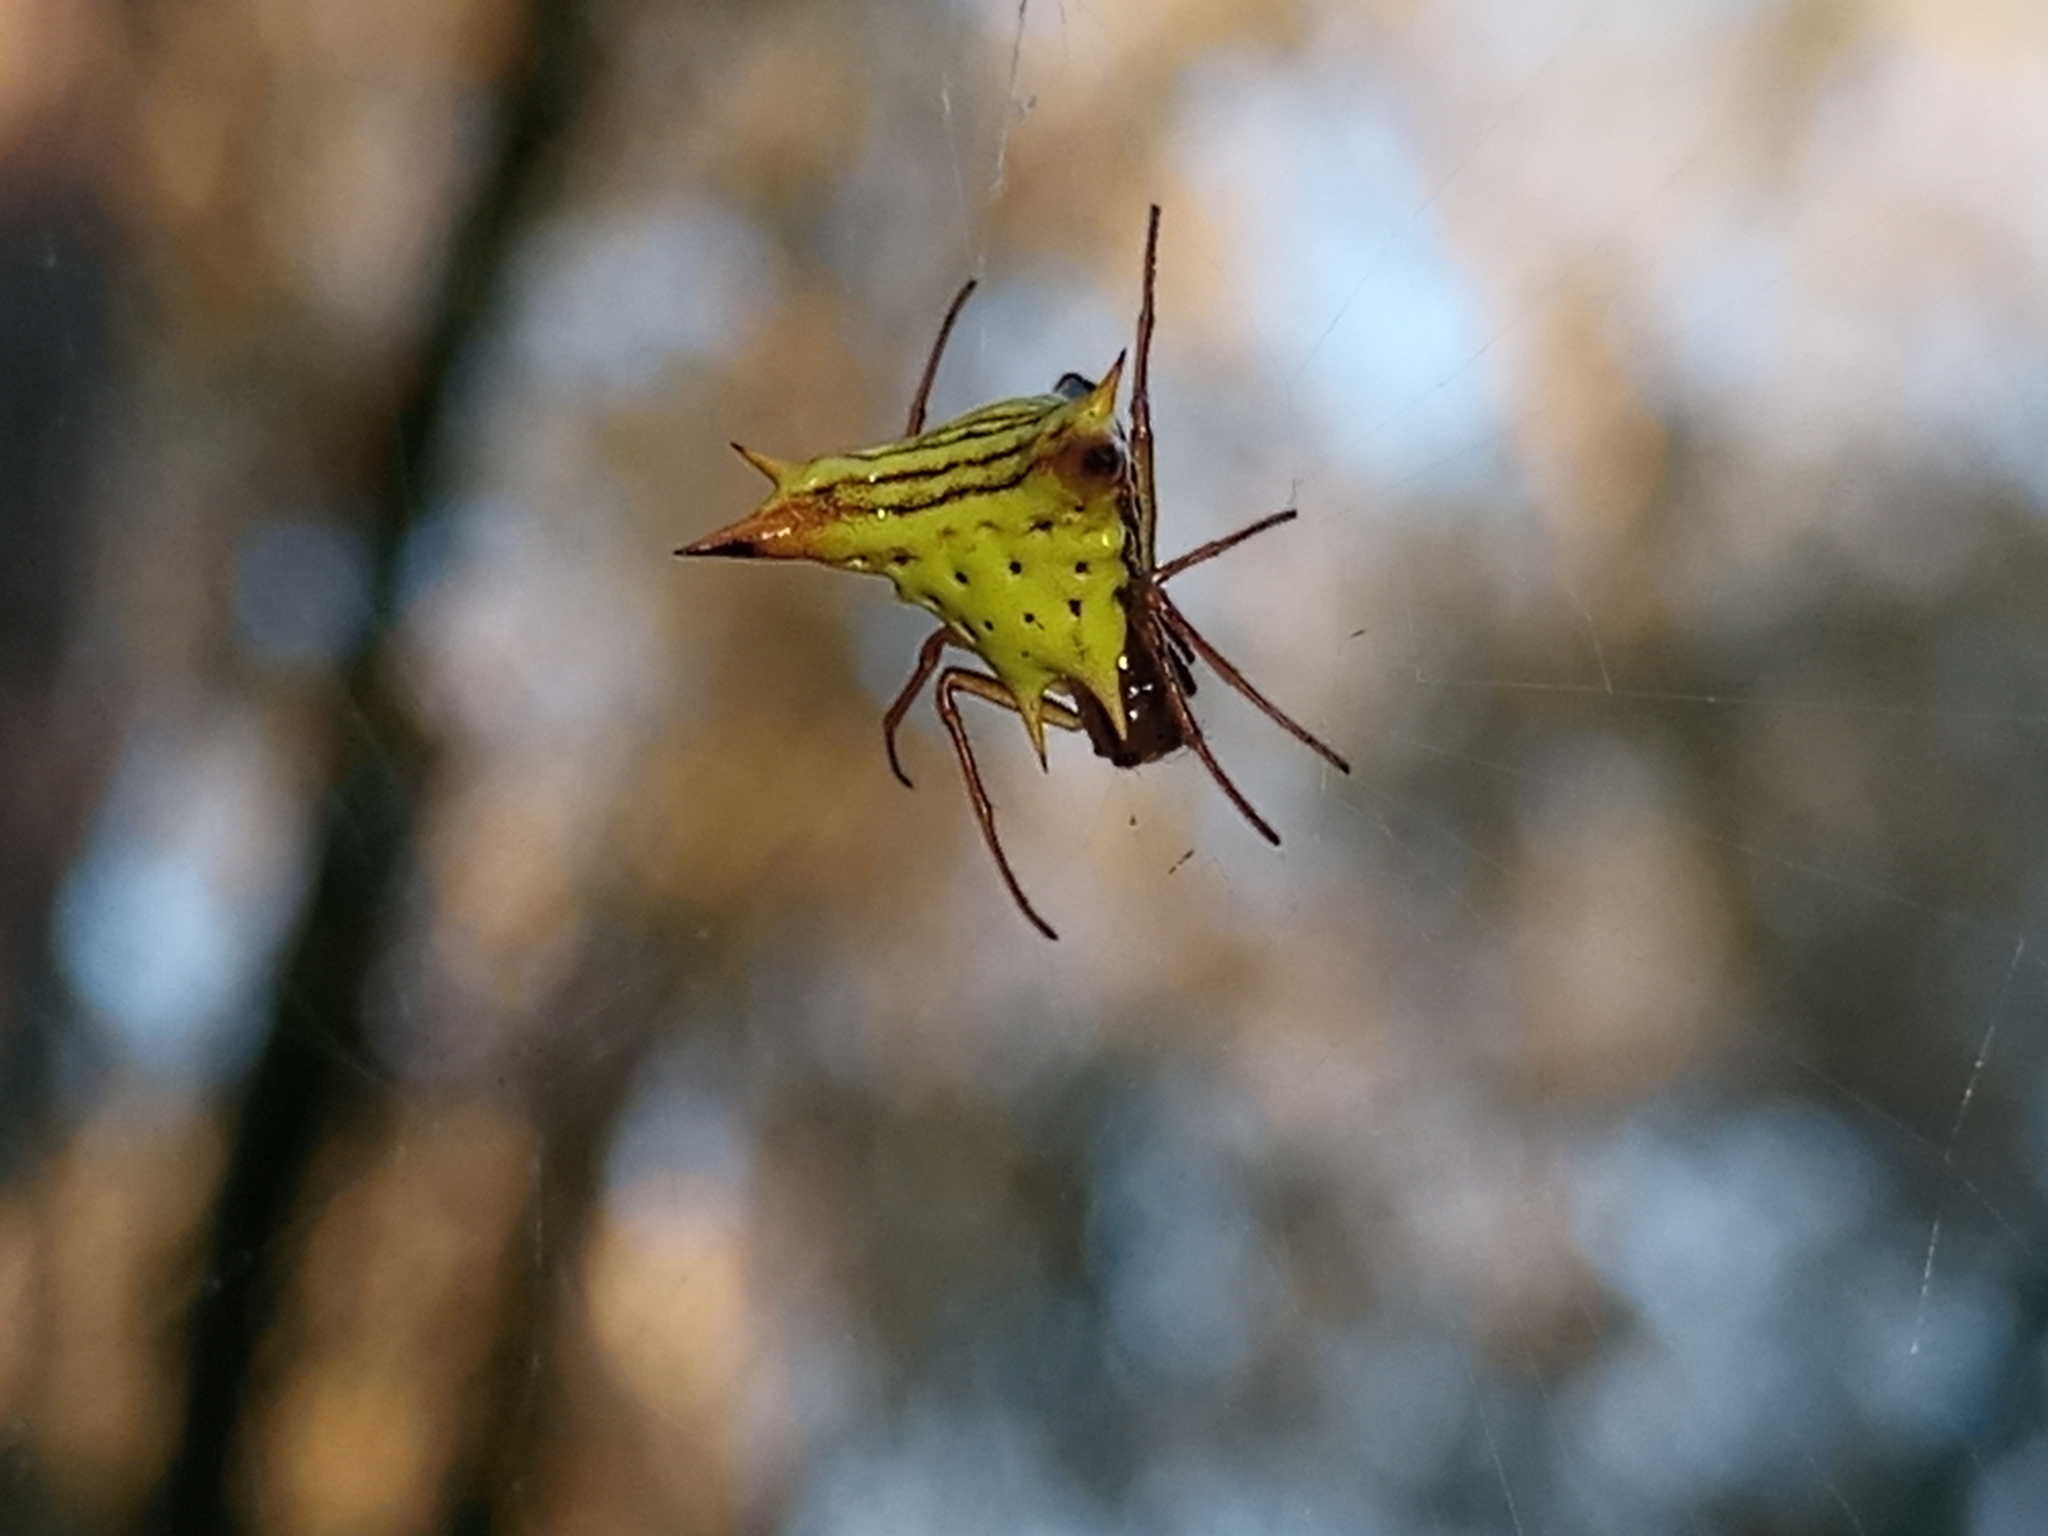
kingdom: Animalia
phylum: Arthropoda
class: Arachnida
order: Araneae
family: Araneidae
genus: Micrathena
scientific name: Micrathena furcata
